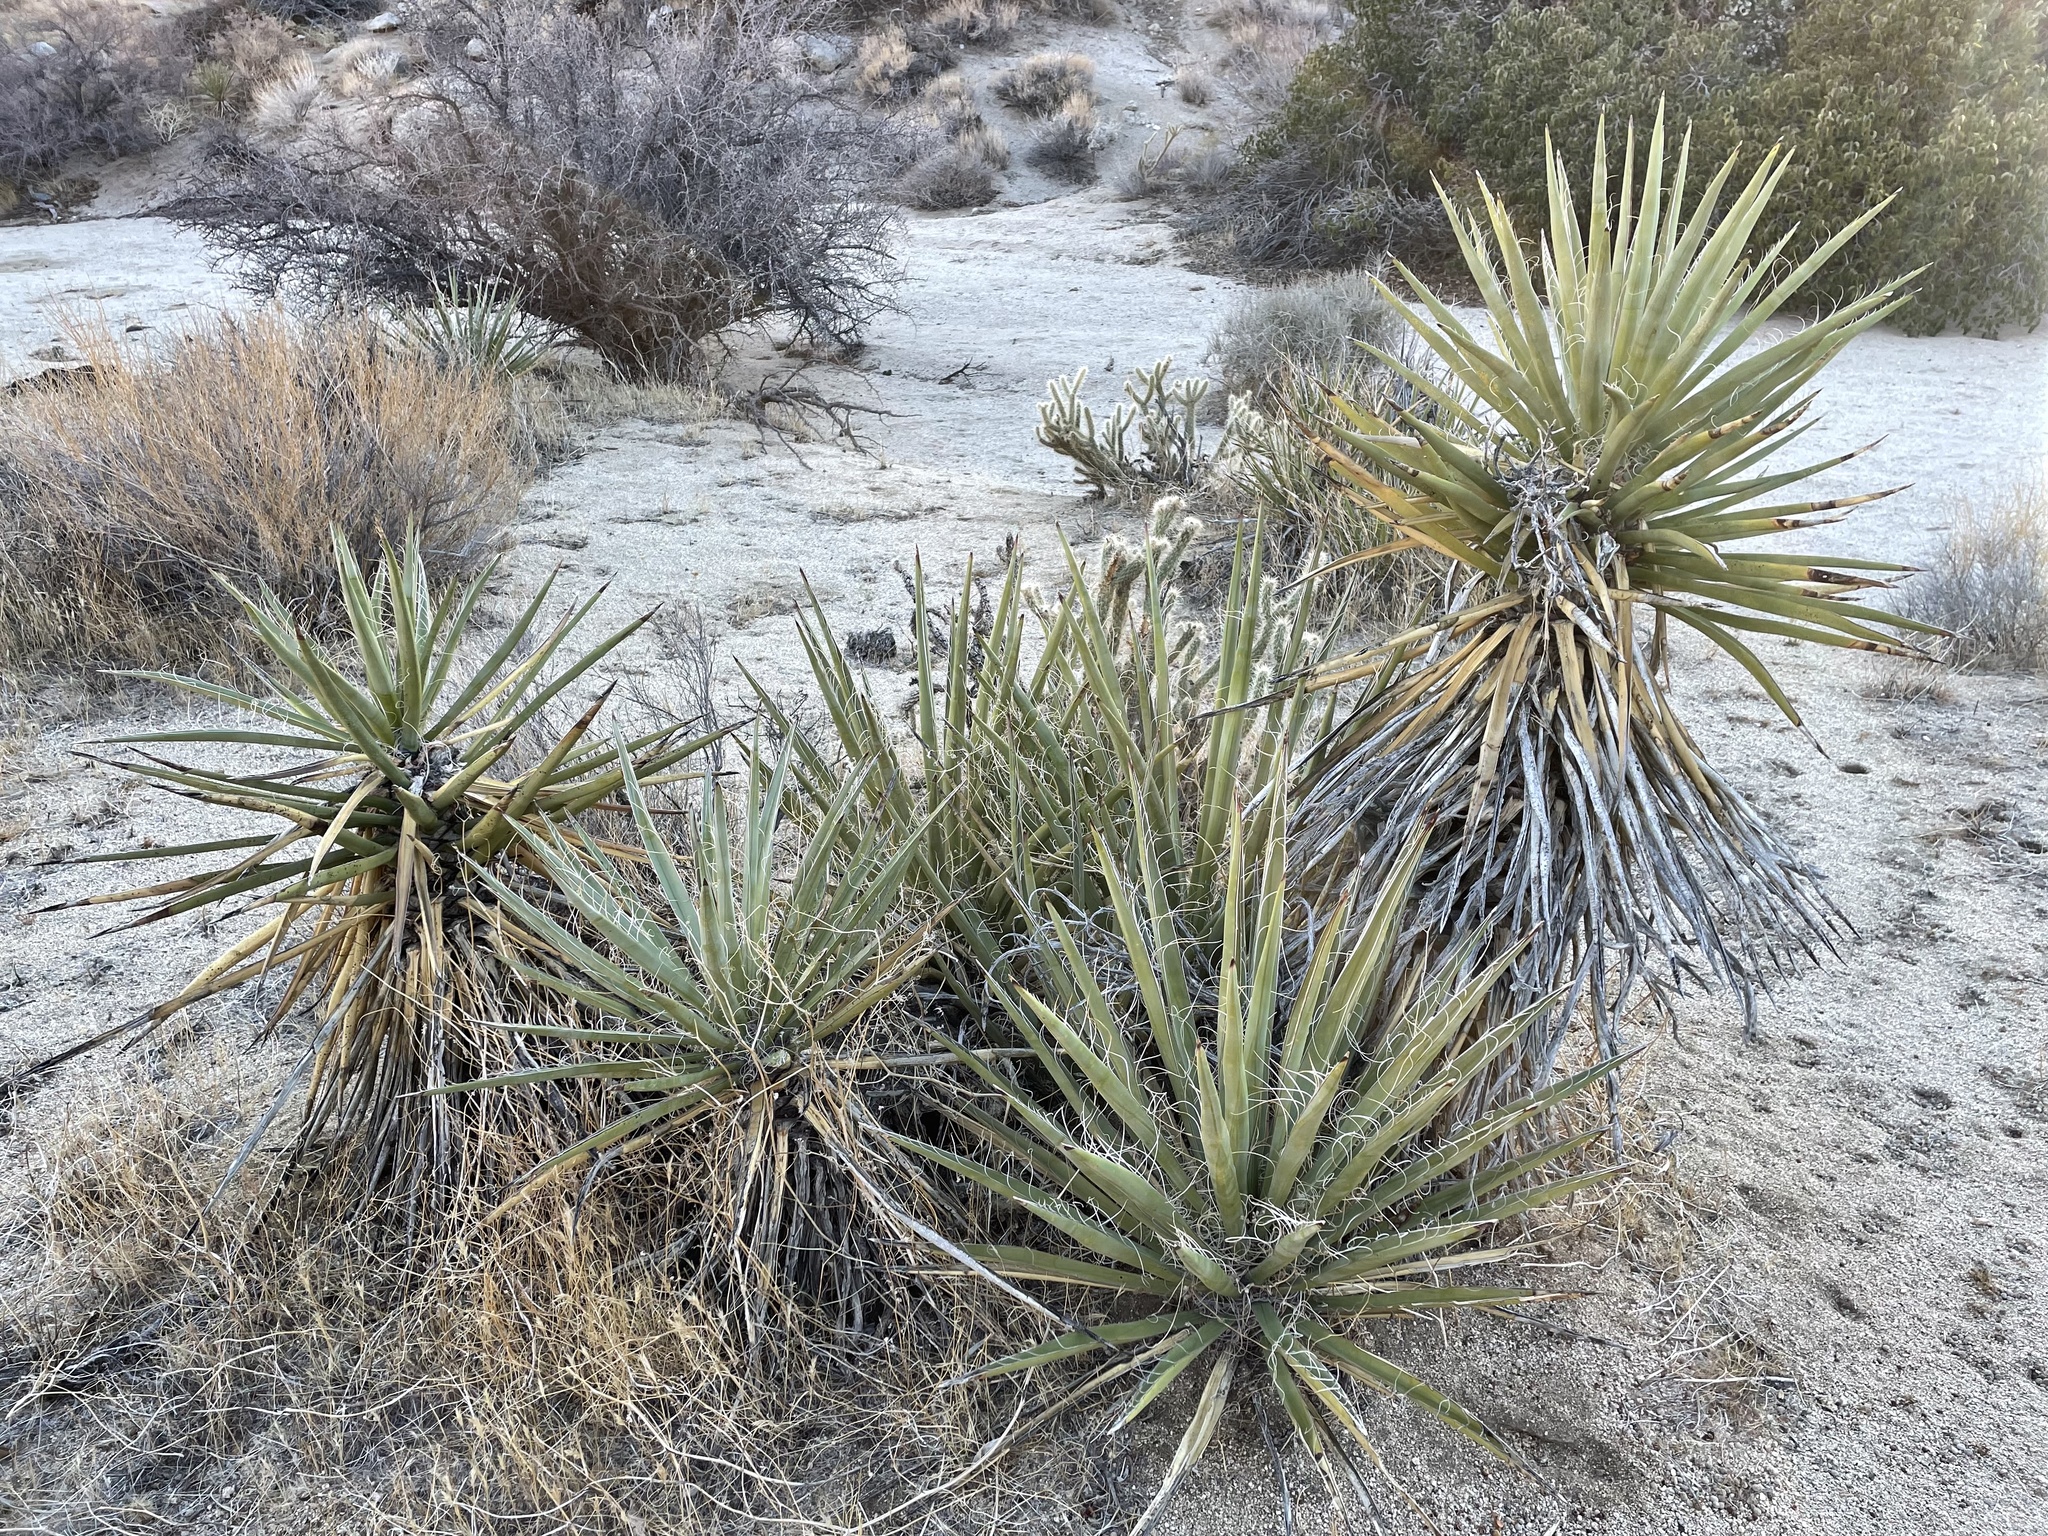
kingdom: Plantae
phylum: Tracheophyta
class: Liliopsida
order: Asparagales
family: Asparagaceae
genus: Yucca
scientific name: Yucca schidigera
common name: Mojave yucca
